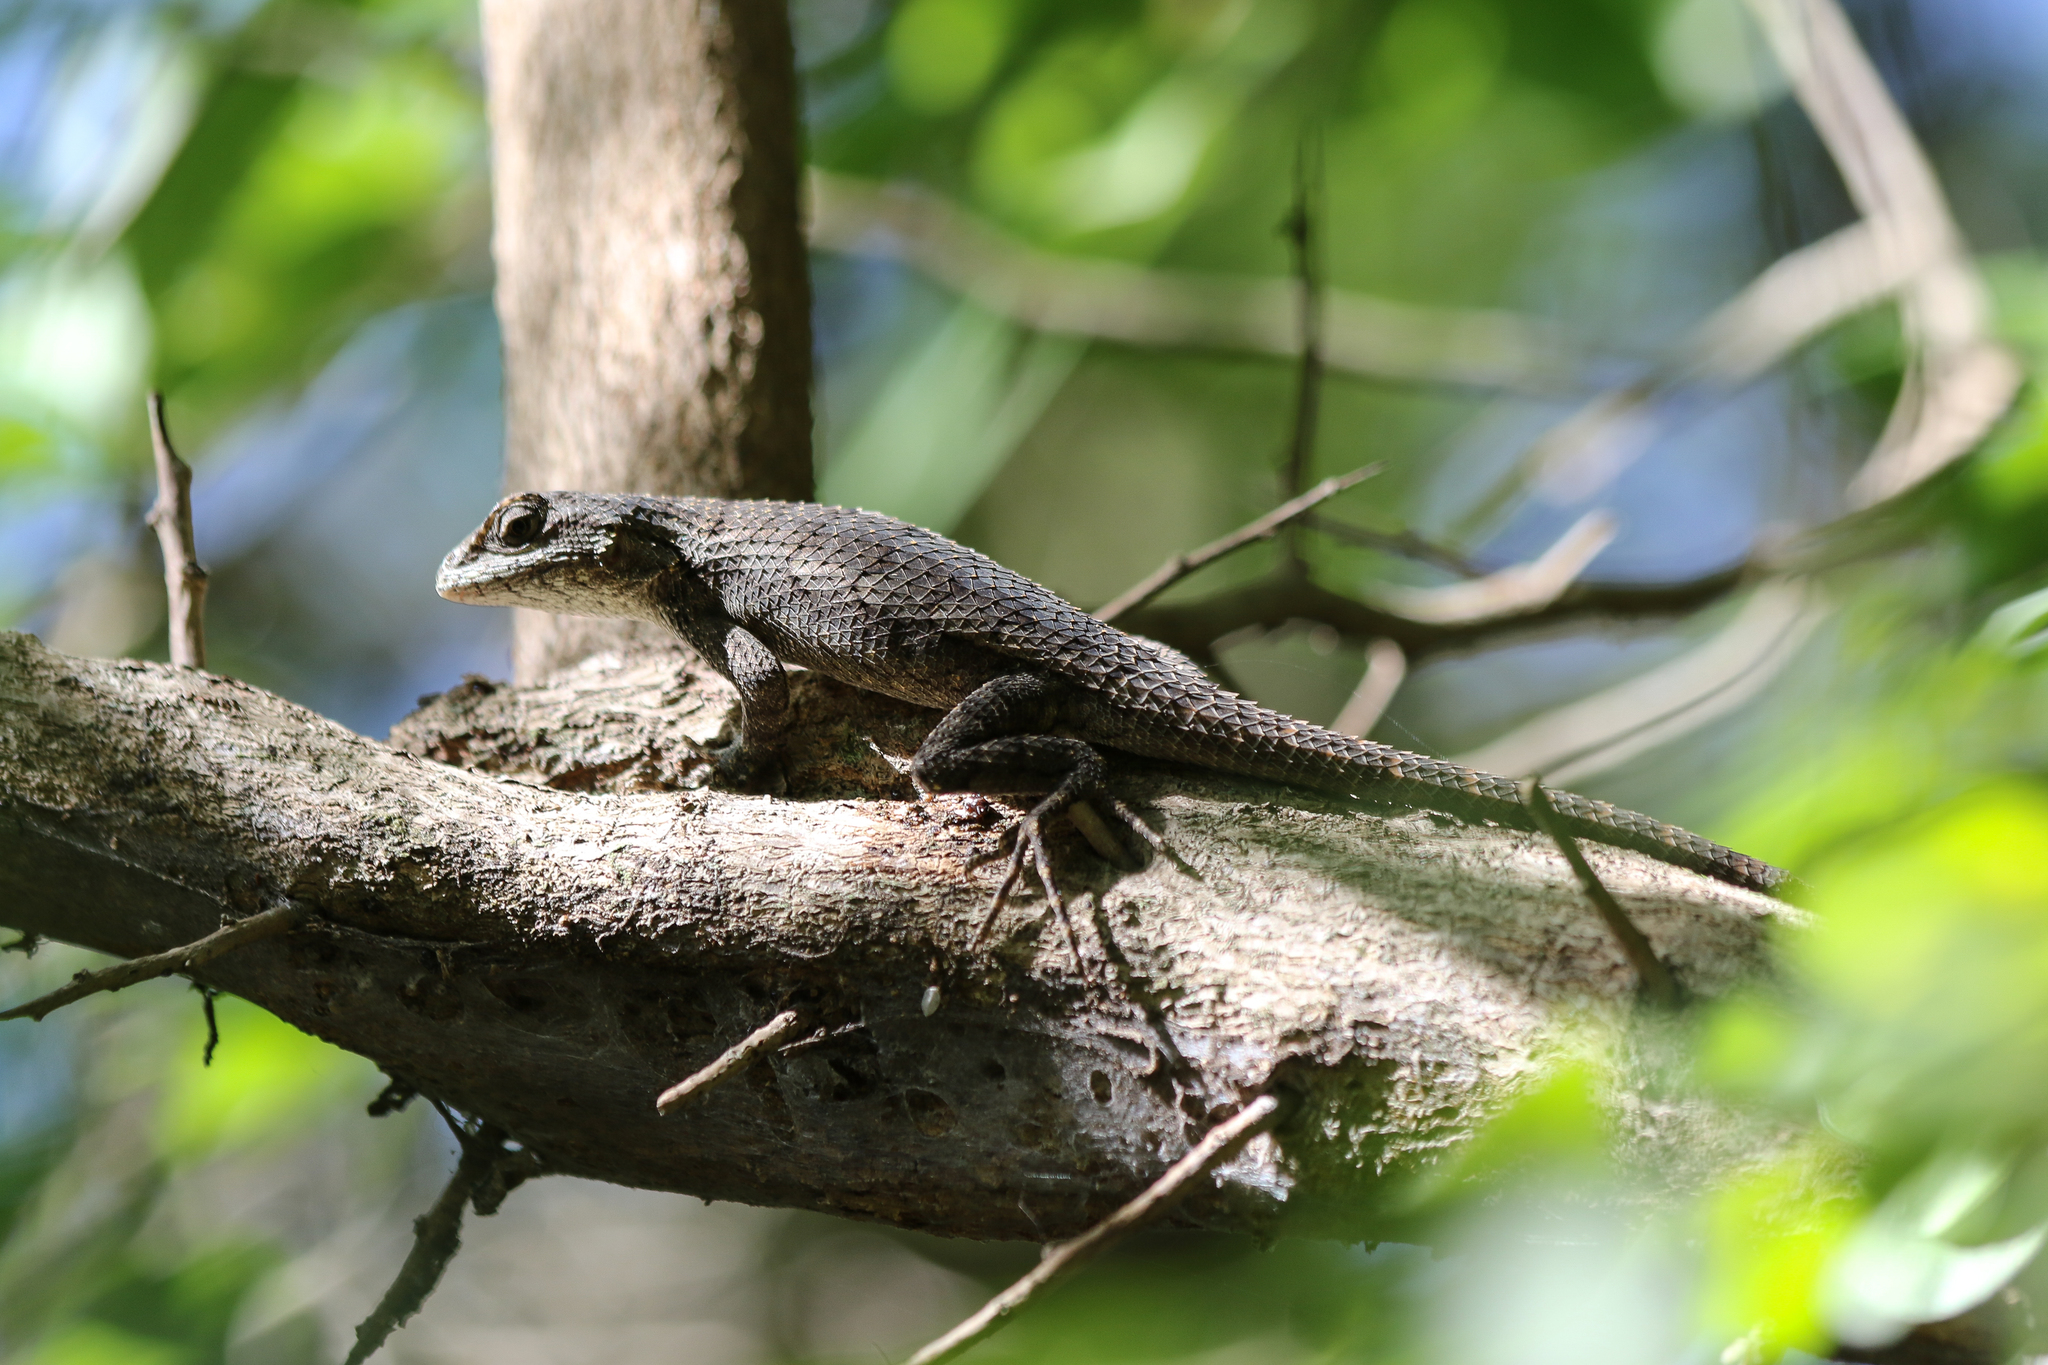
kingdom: Animalia
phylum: Chordata
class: Squamata
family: Phrynosomatidae
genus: Sceloporus
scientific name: Sceloporus olivaceus
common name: Texas spiny lizard
